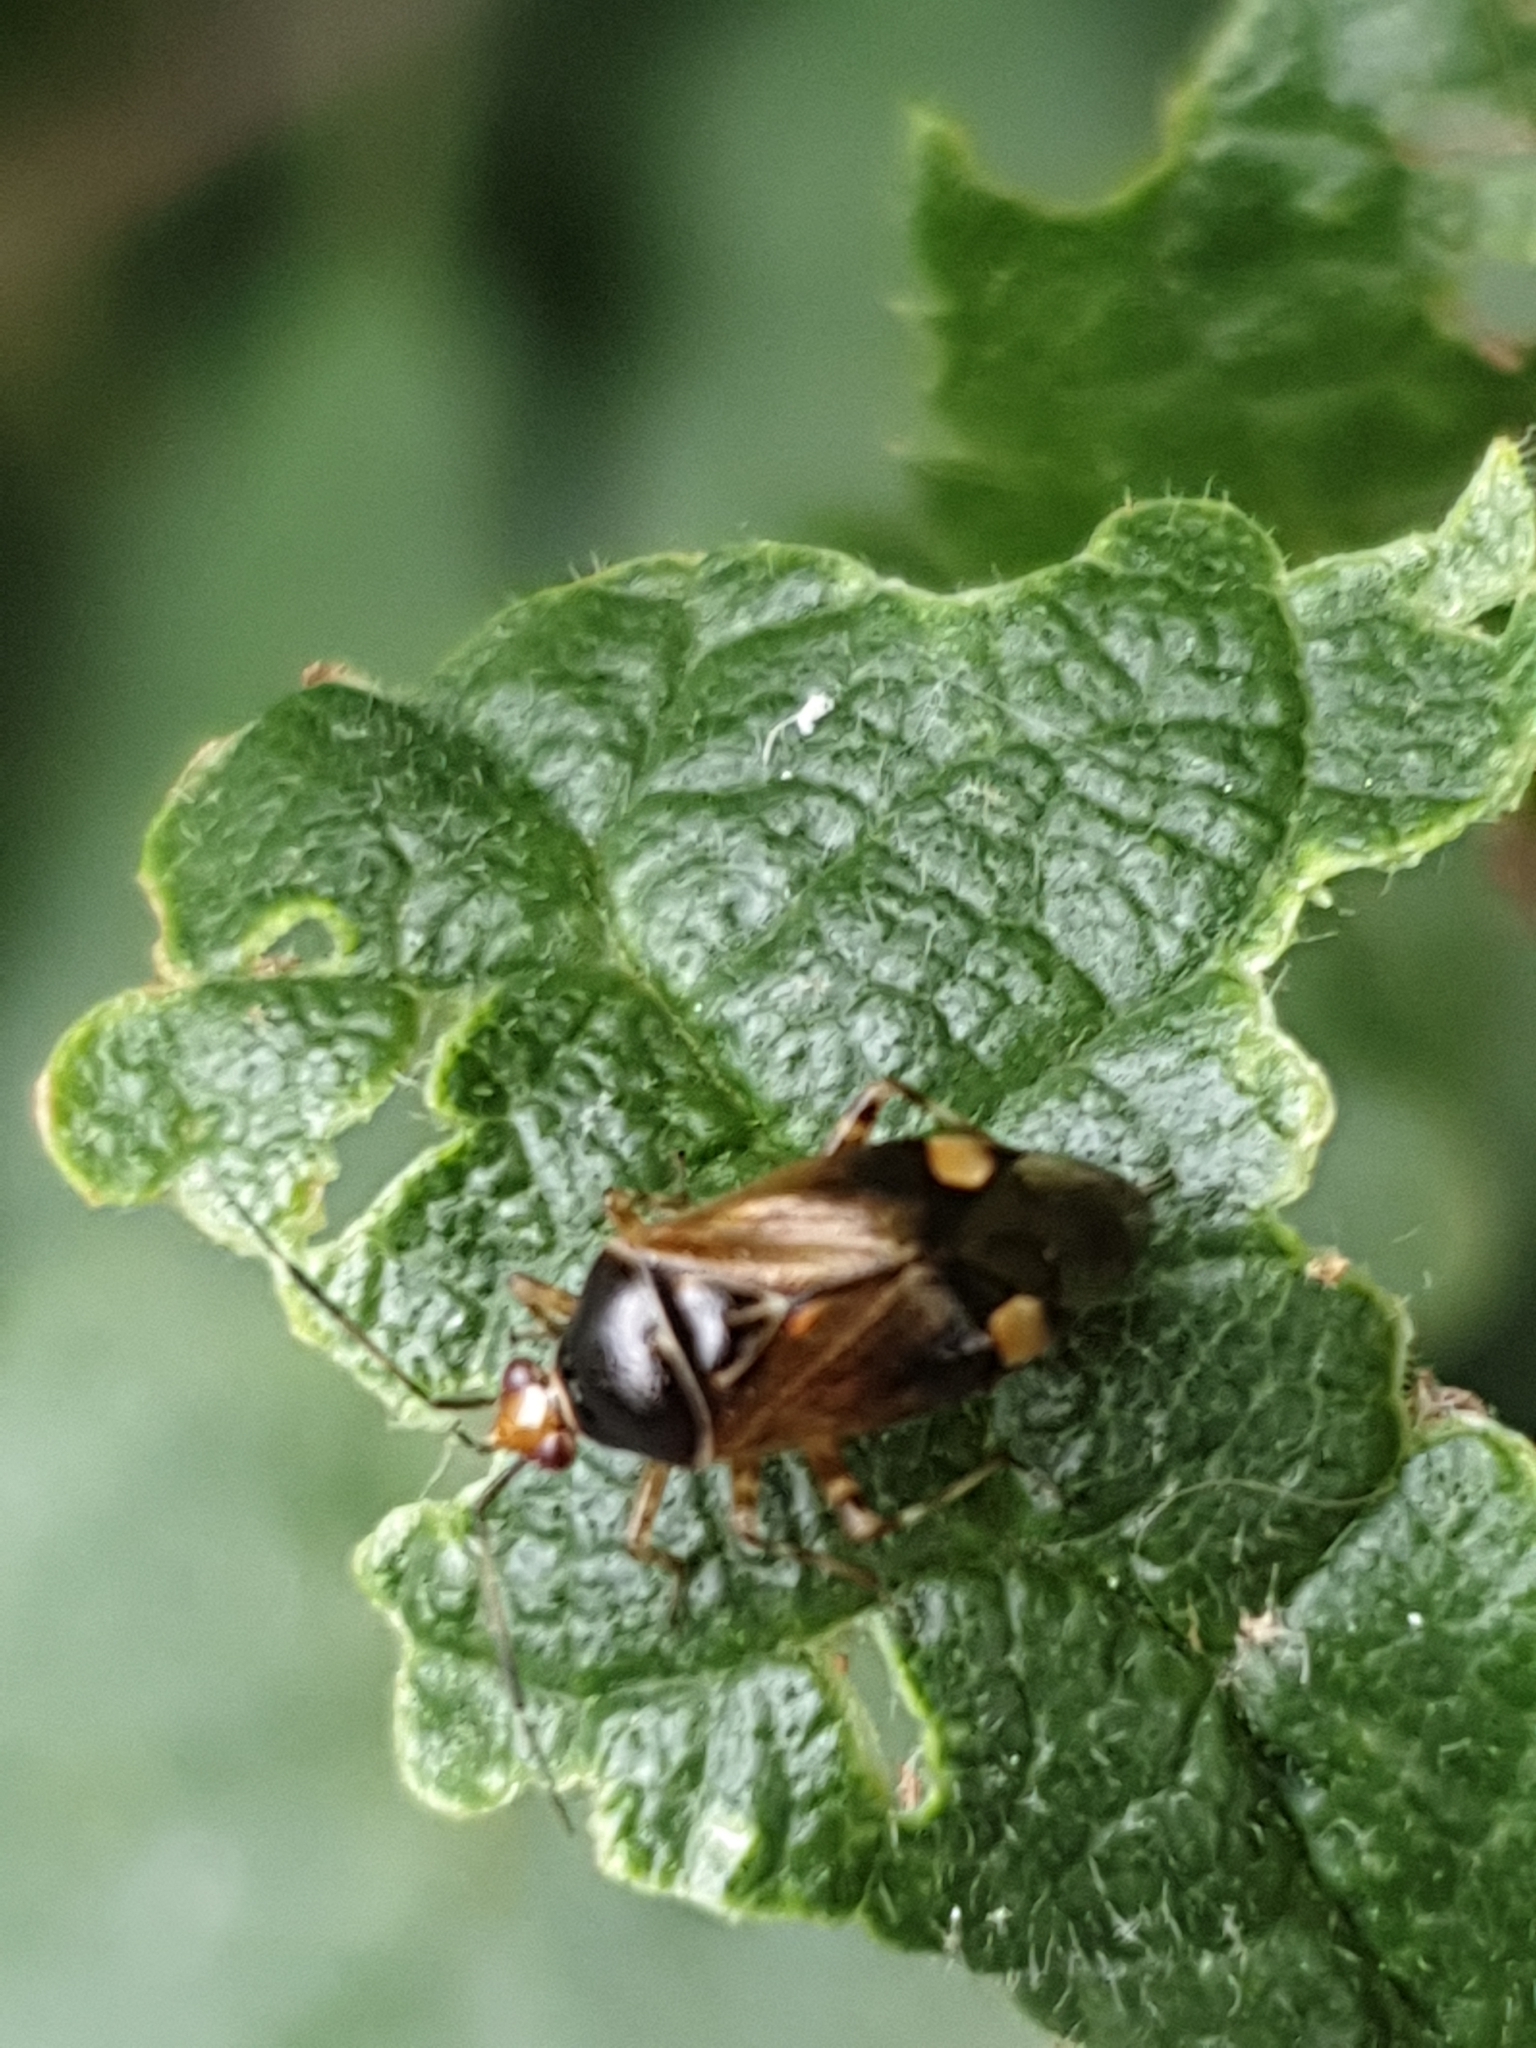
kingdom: Animalia
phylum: Arthropoda
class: Insecta
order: Hemiptera
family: Miridae
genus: Deraeocoris
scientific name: Deraeocoris flavilinea
